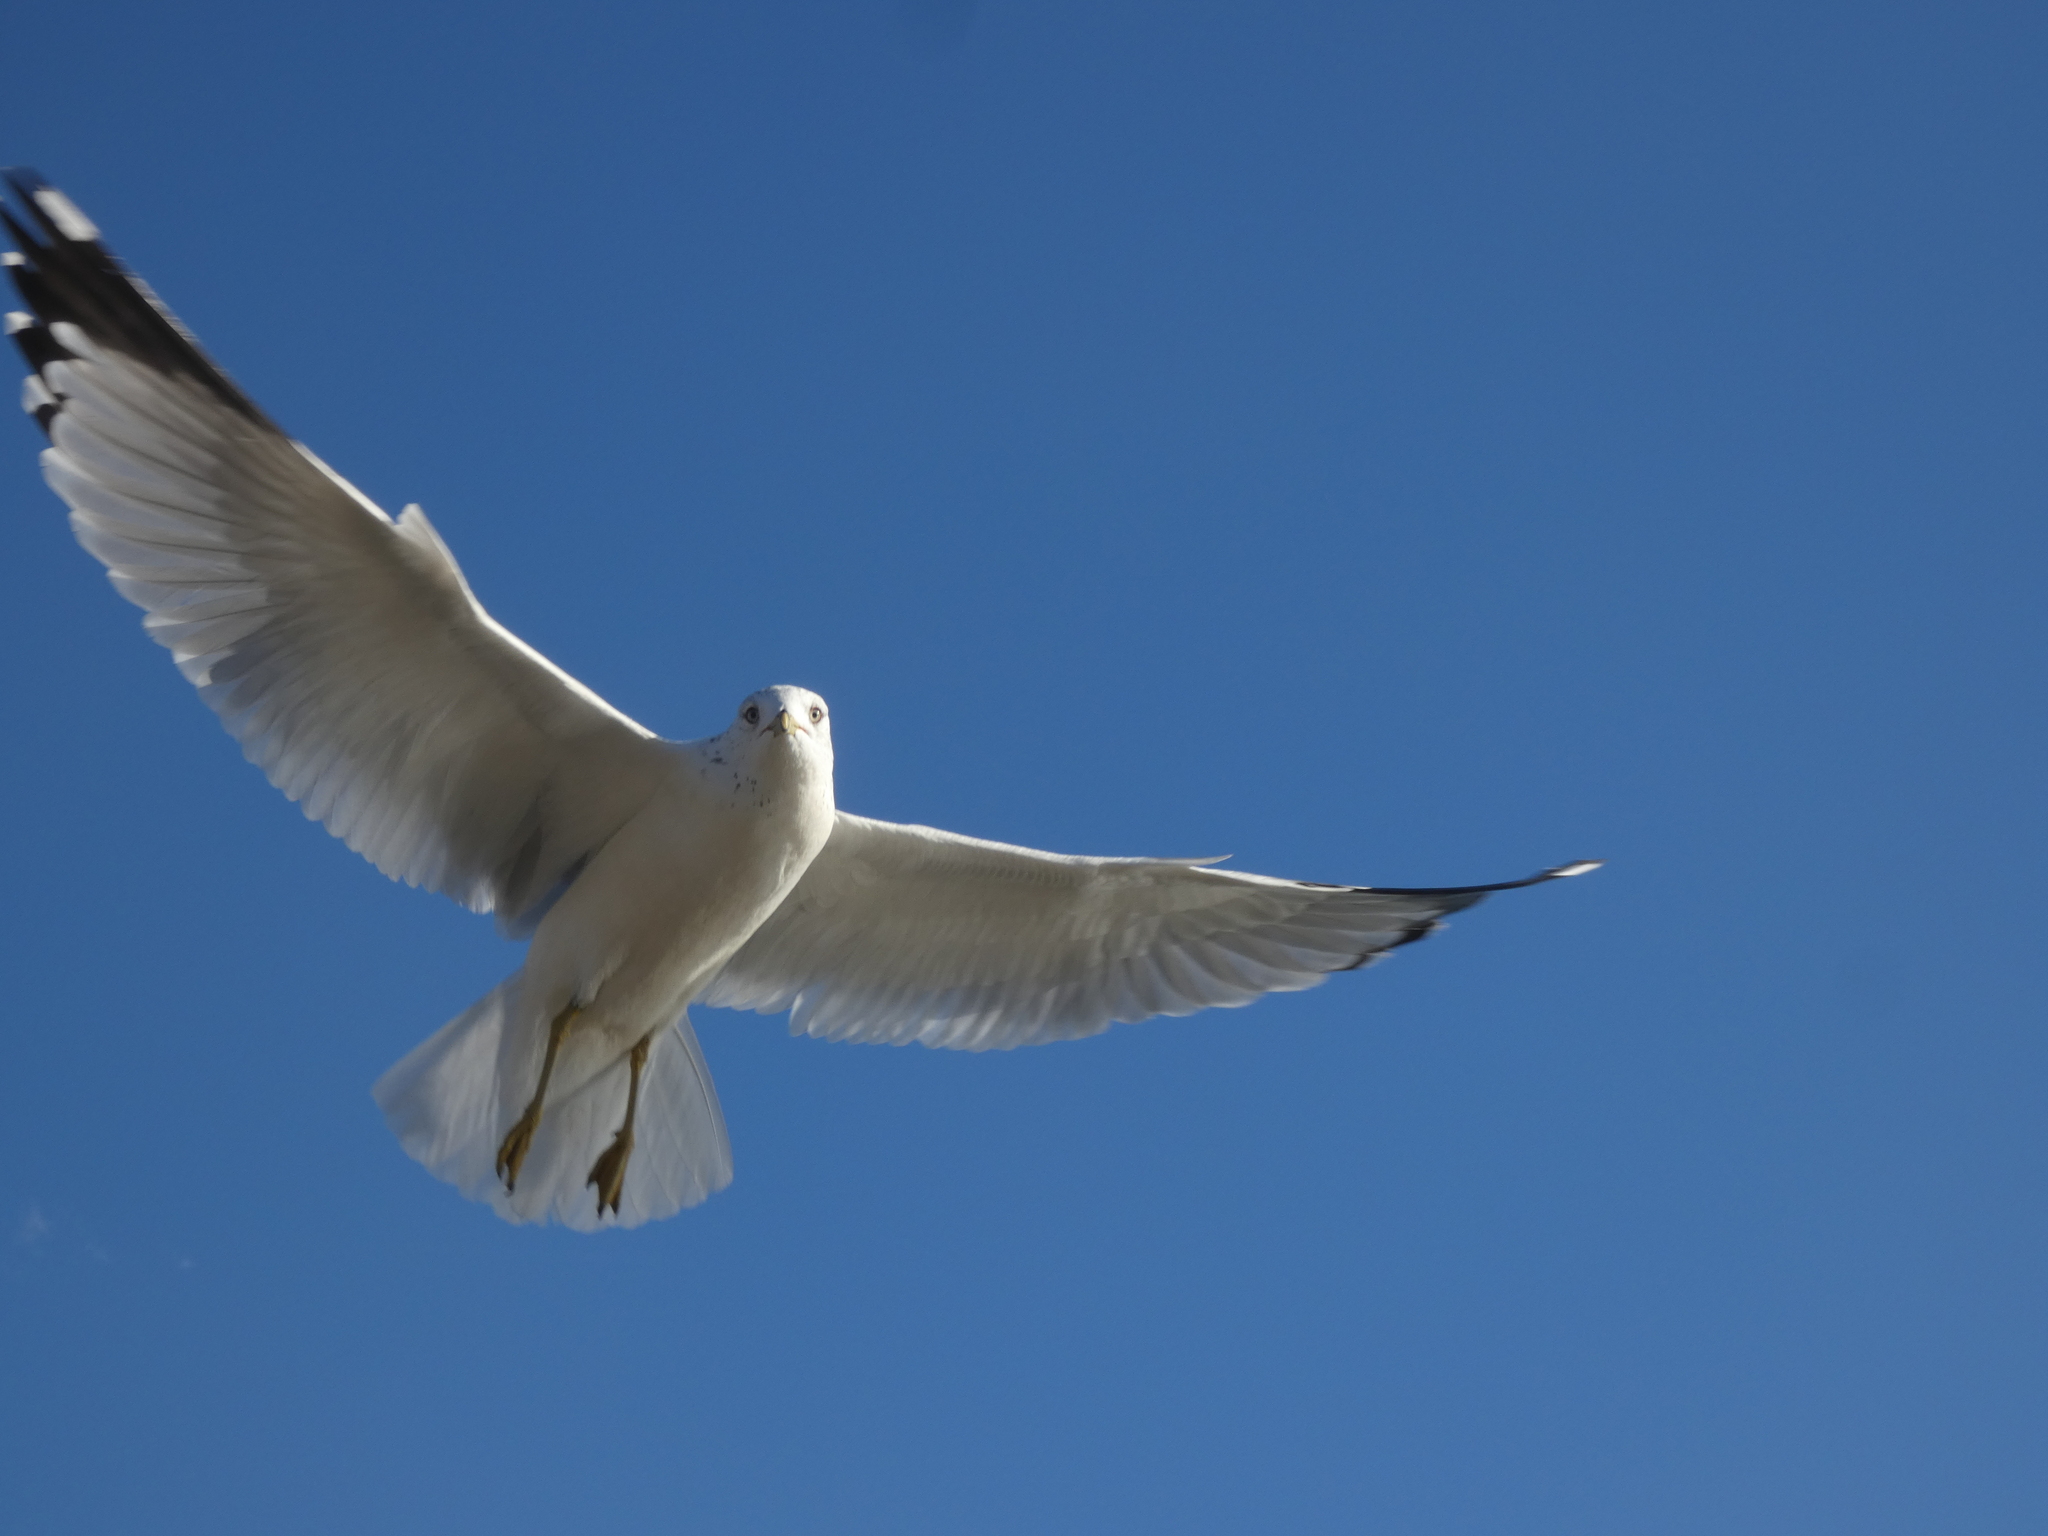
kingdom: Animalia
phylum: Chordata
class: Aves
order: Charadriiformes
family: Laridae
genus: Larus
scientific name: Larus delawarensis
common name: Ring-billed gull
